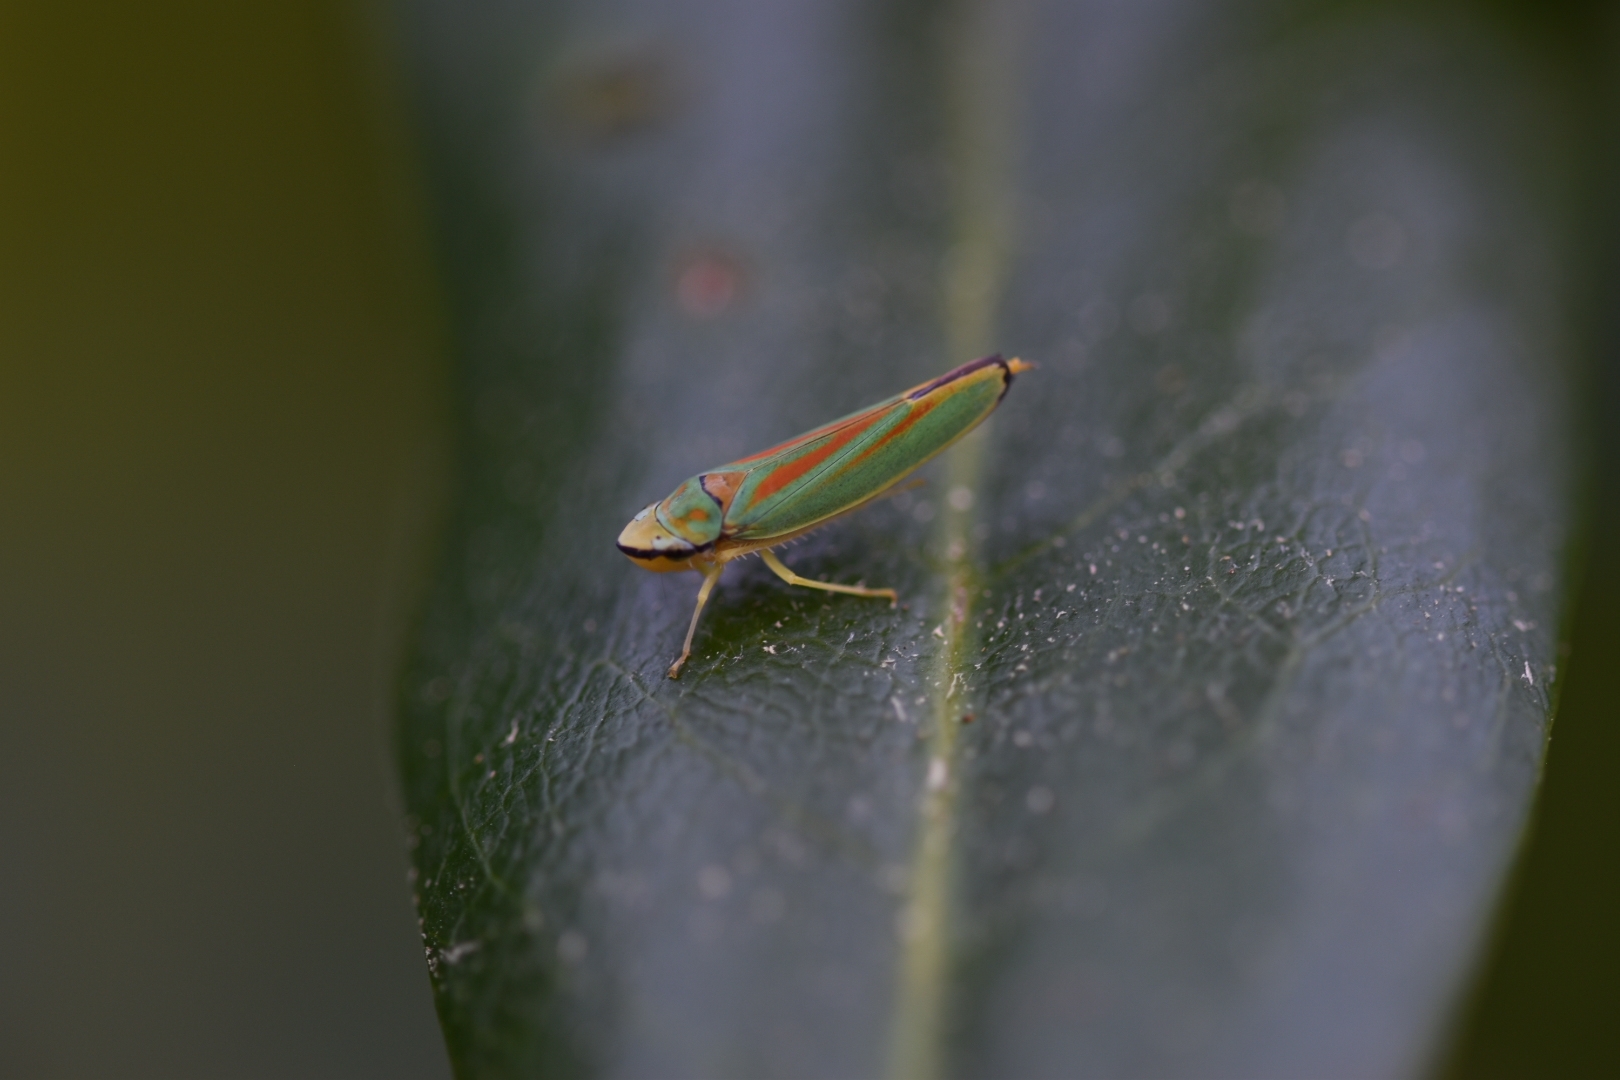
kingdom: Animalia
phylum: Arthropoda
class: Insecta
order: Hemiptera
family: Cicadellidae
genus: Graphocephala
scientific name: Graphocephala fennahi
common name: Rhododendron leafhopper
